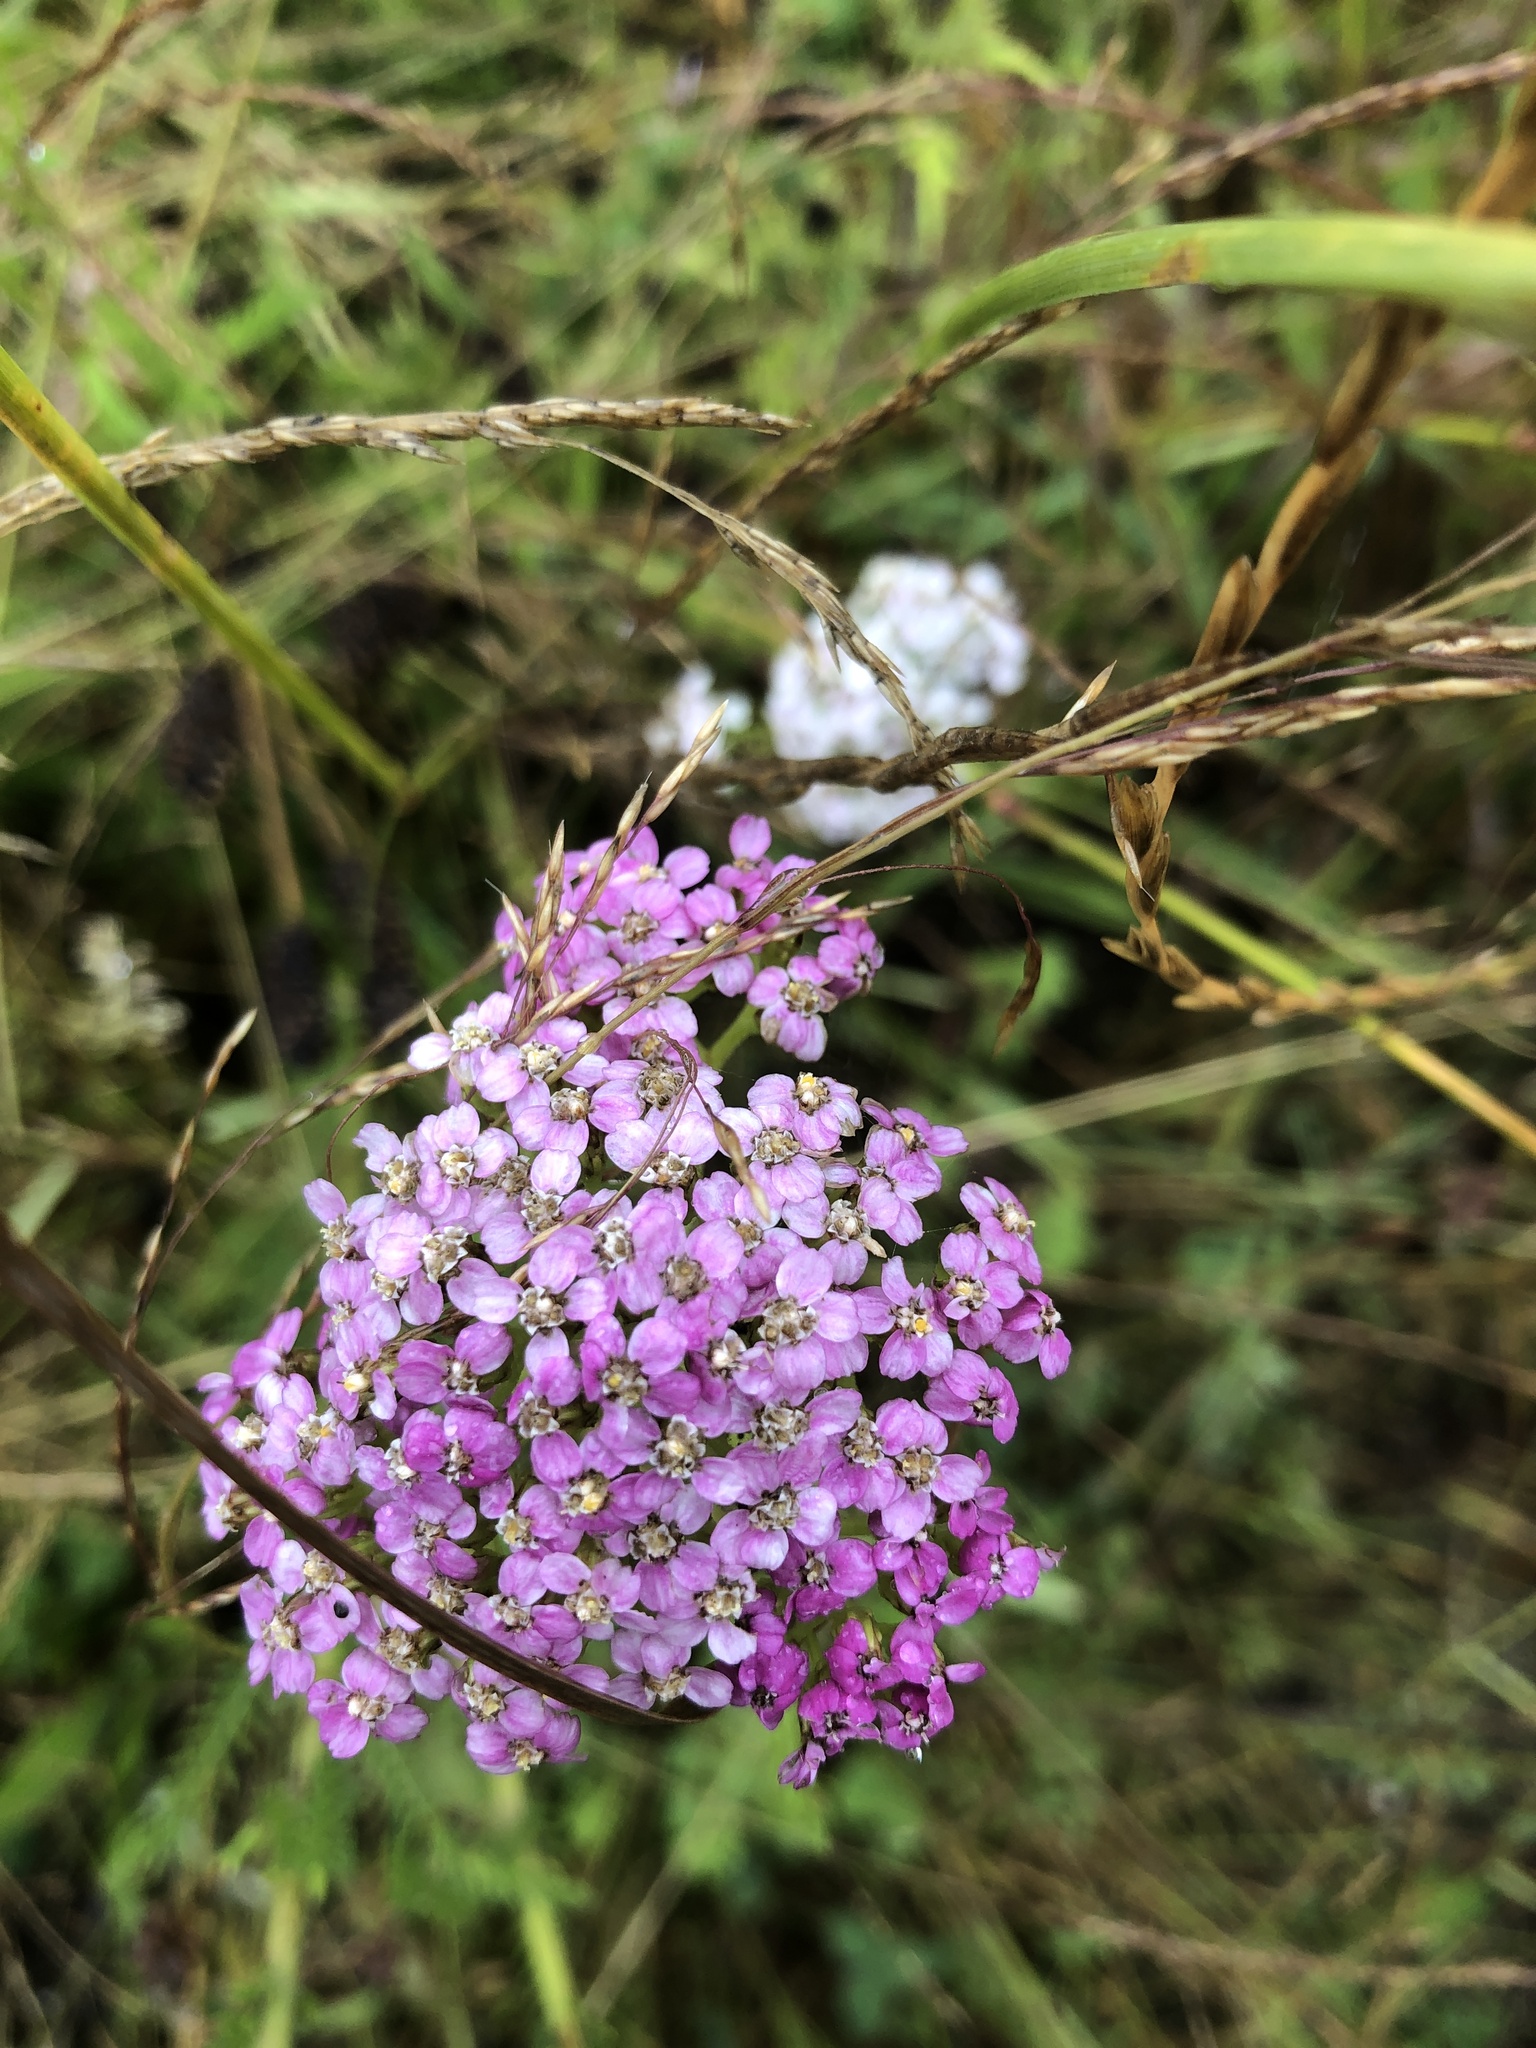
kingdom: Plantae
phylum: Tracheophyta
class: Magnoliopsida
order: Asterales
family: Asteraceae
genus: Achillea
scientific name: Achillea millefolium
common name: Yarrow
